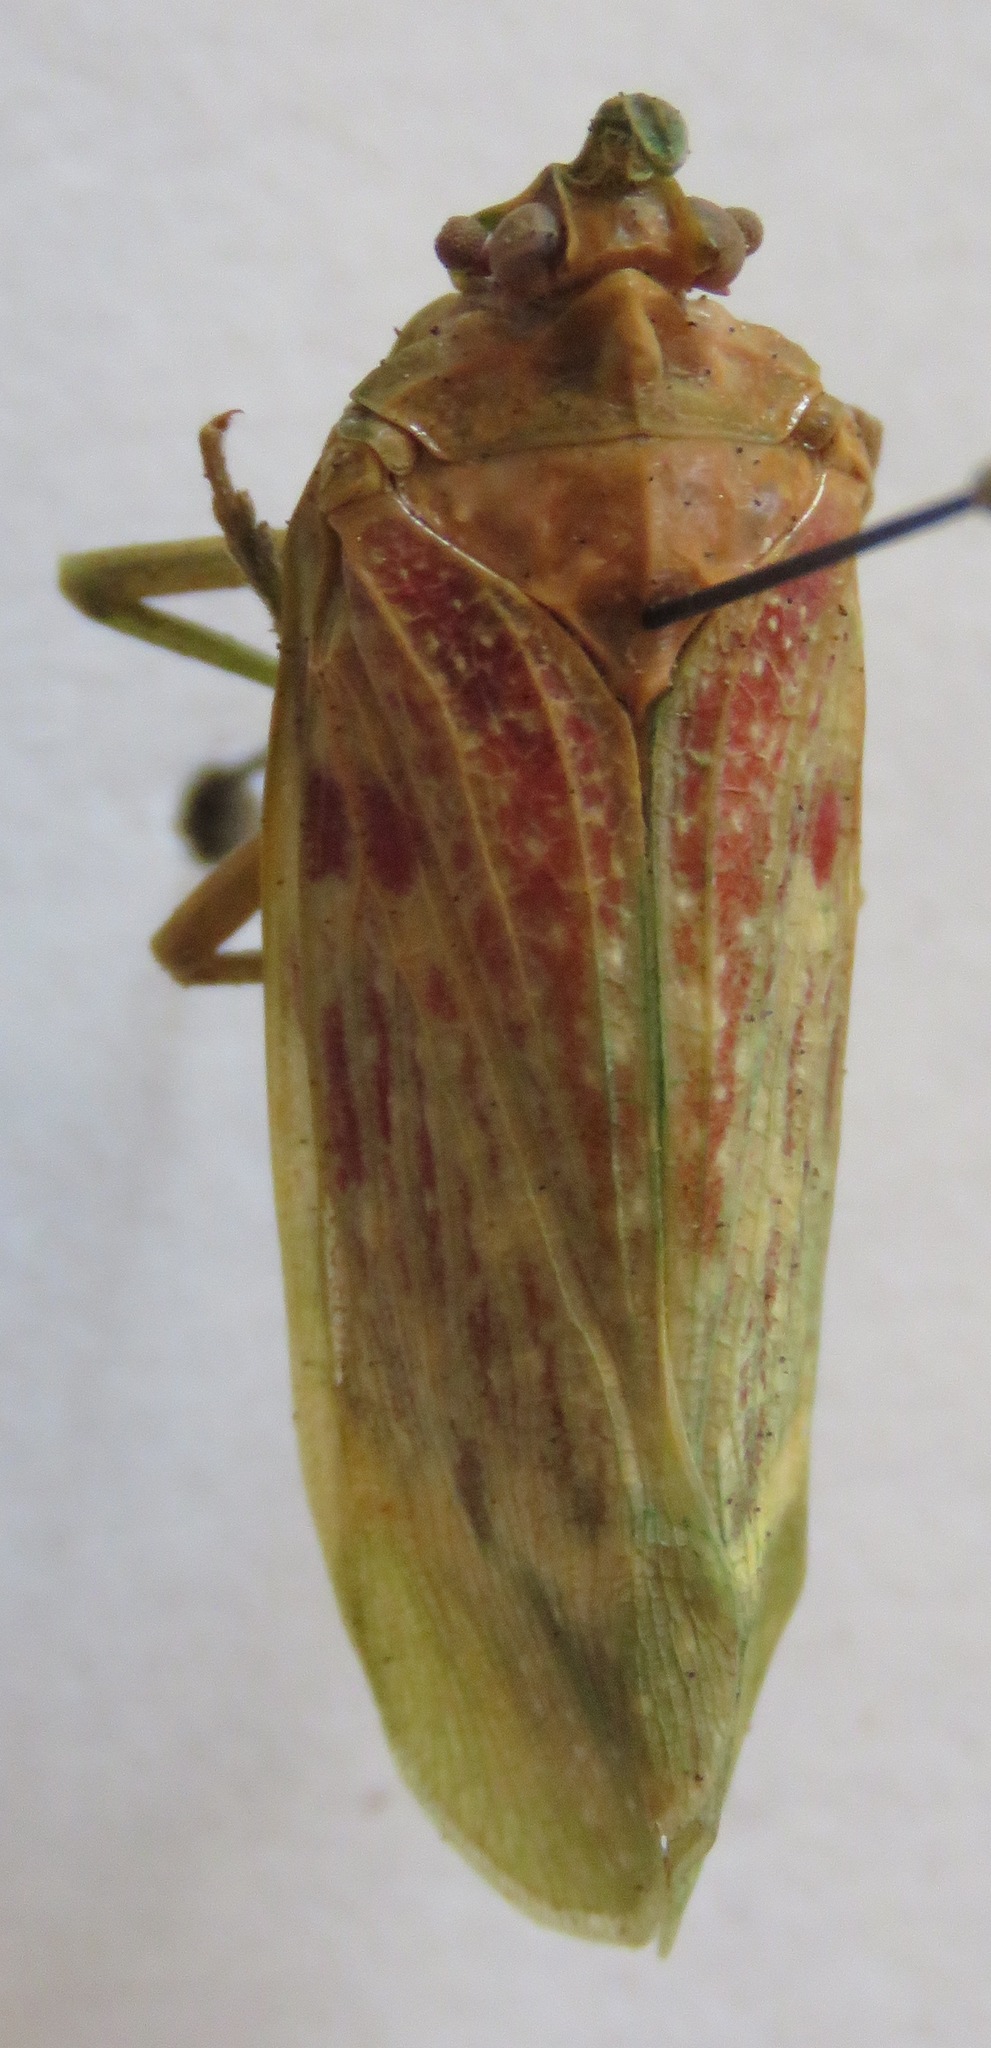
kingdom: Animalia
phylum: Arthropoda
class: Insecta
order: Hemiptera
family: Fulgoridae
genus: Enchophora
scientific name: Enchophora rosacea
